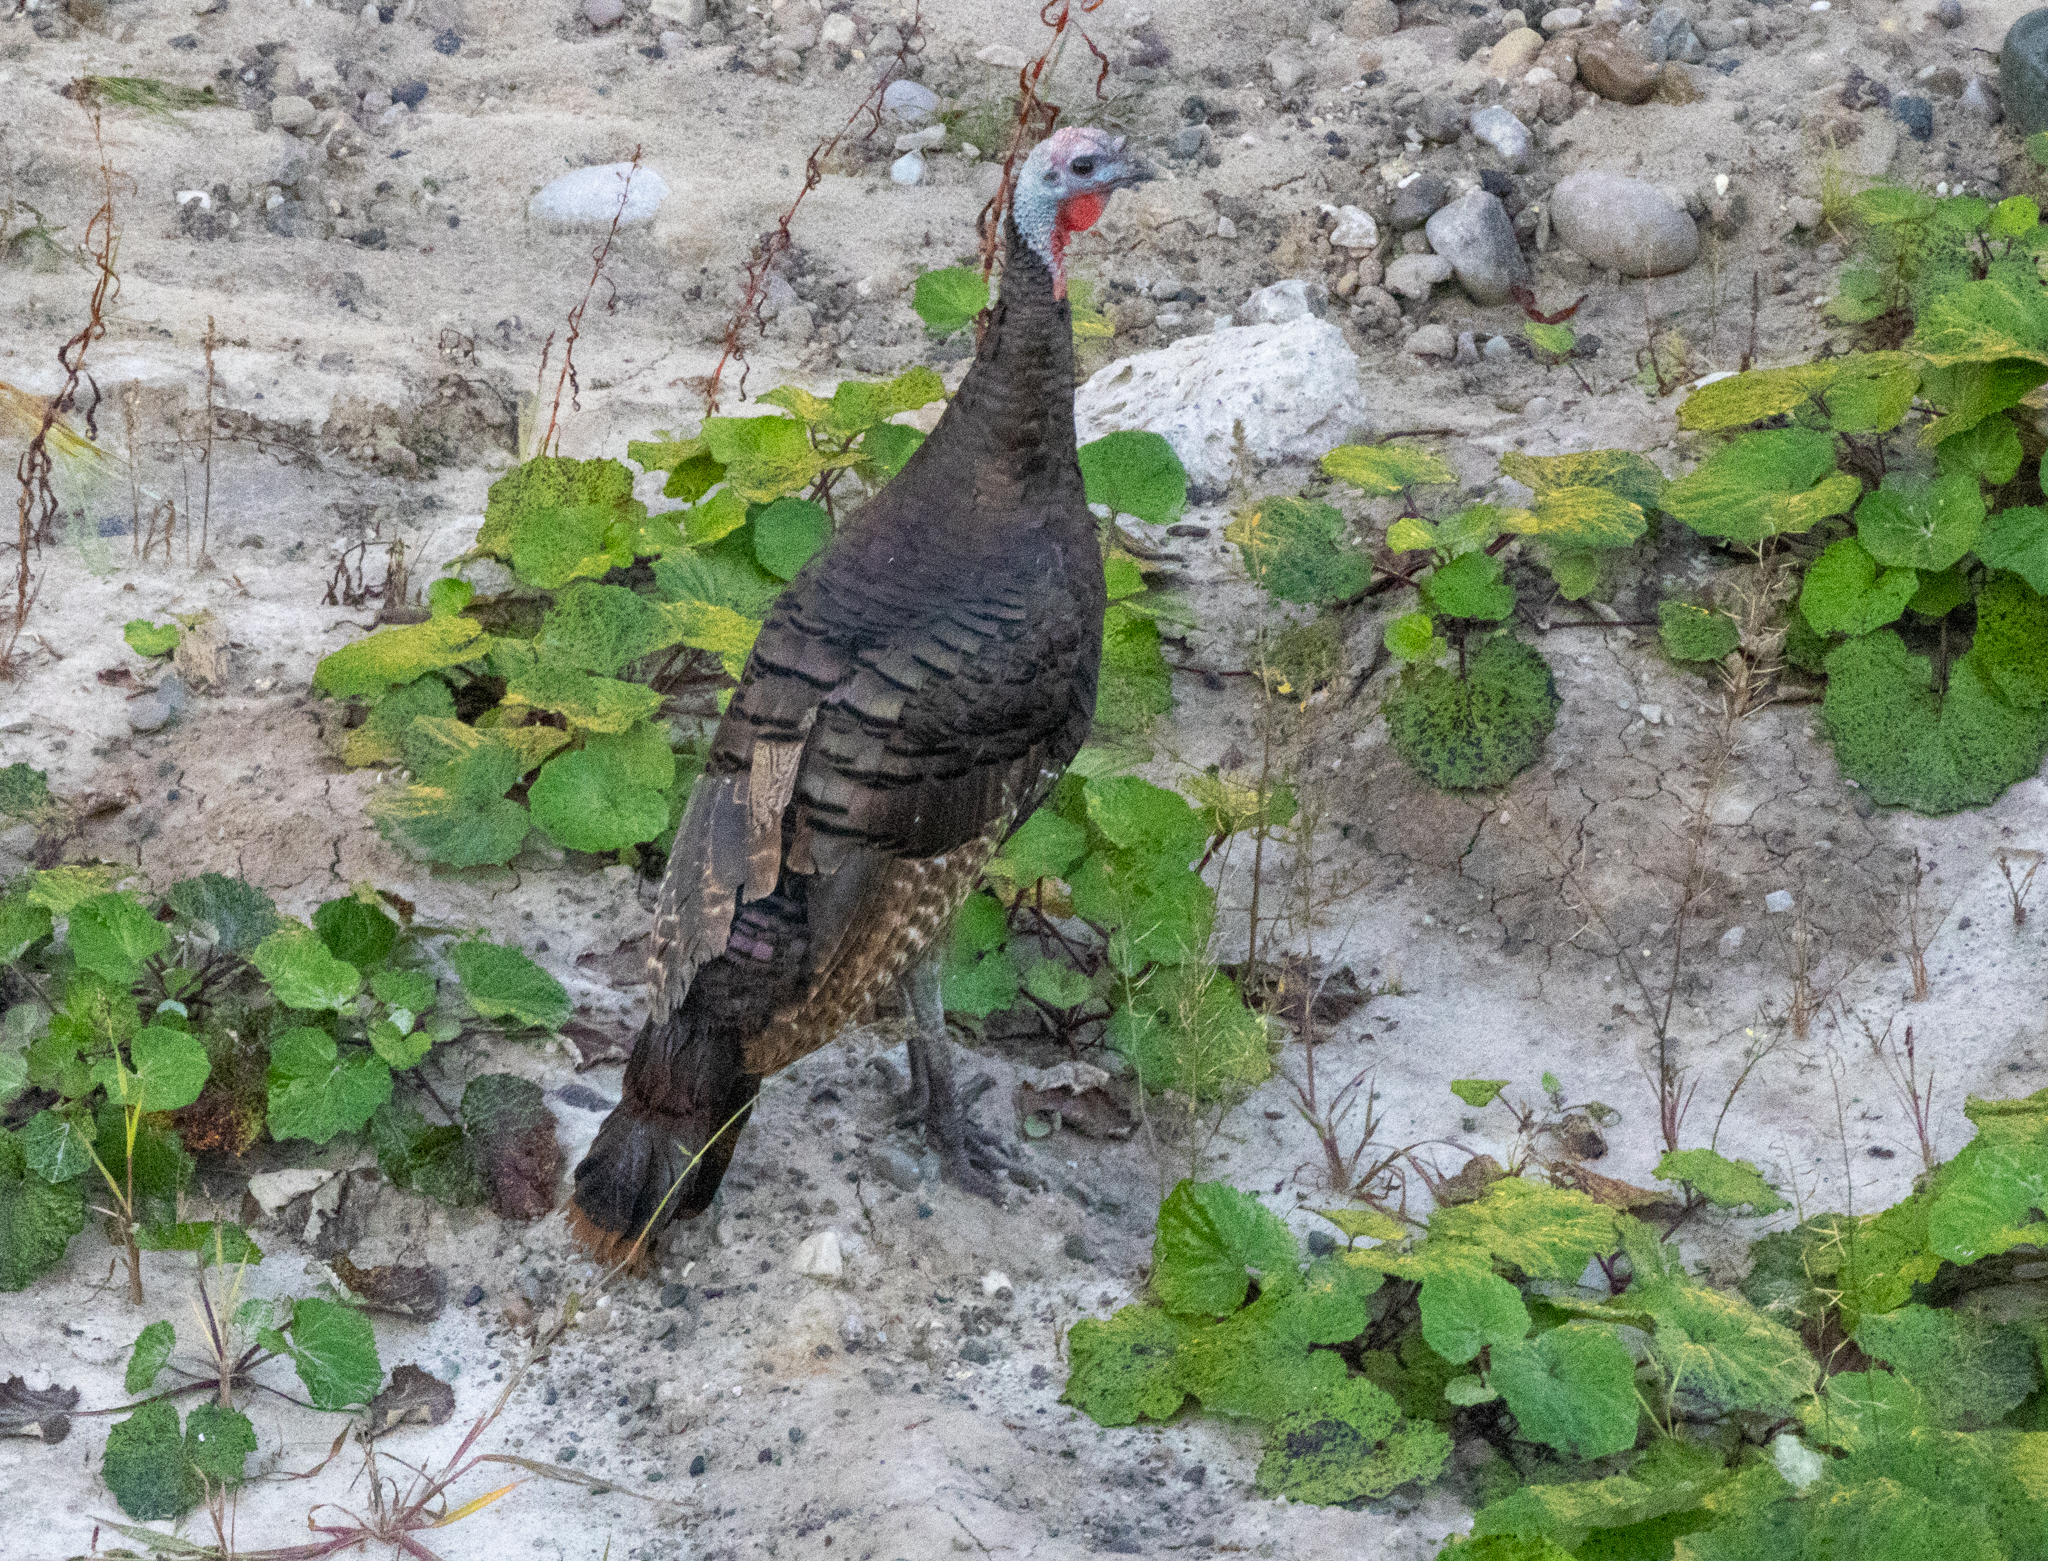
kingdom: Animalia
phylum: Chordata
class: Aves
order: Galliformes
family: Phasianidae
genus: Meleagris
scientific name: Meleagris gallopavo
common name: Wild turkey
